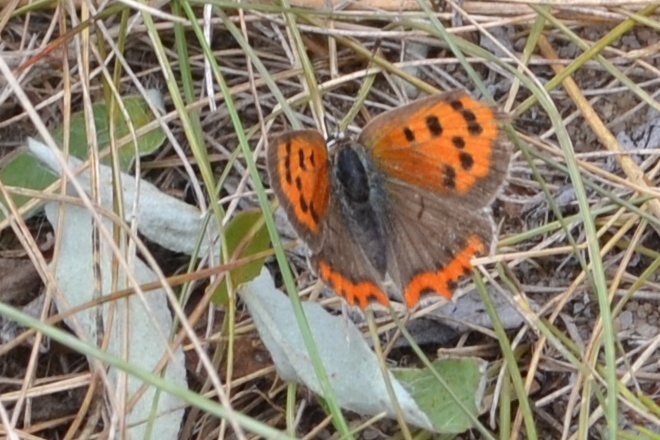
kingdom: Animalia
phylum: Arthropoda
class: Insecta
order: Lepidoptera
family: Lycaenidae
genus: Lycaena
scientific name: Lycaena phlaeas
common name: Small copper
